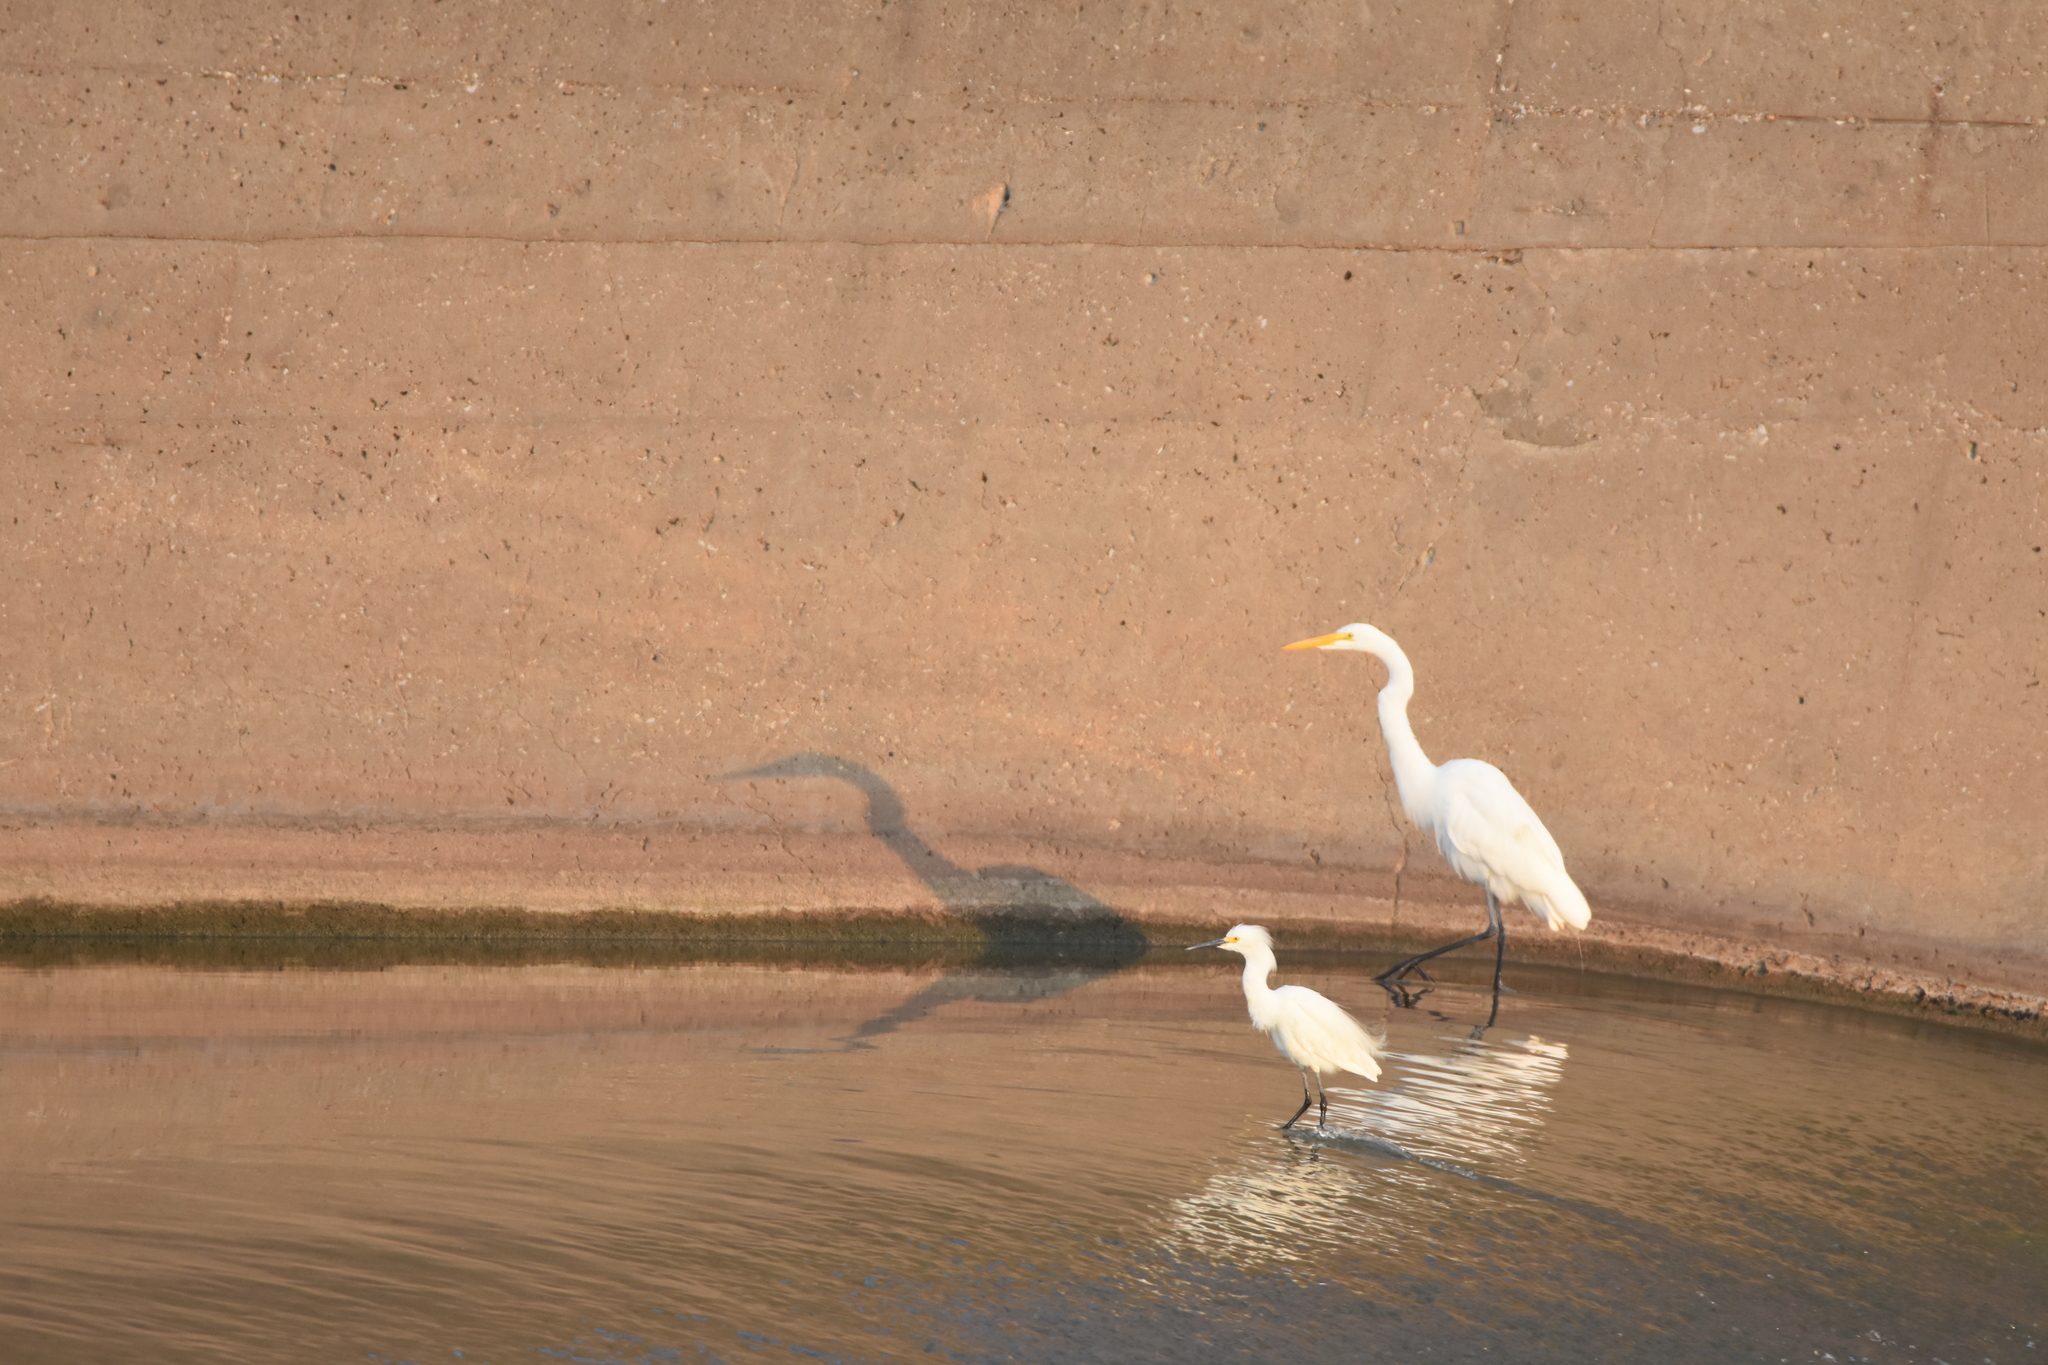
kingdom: Animalia
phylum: Chordata
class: Aves
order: Pelecaniformes
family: Ardeidae
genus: Ardea
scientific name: Ardea alba
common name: Great egret
